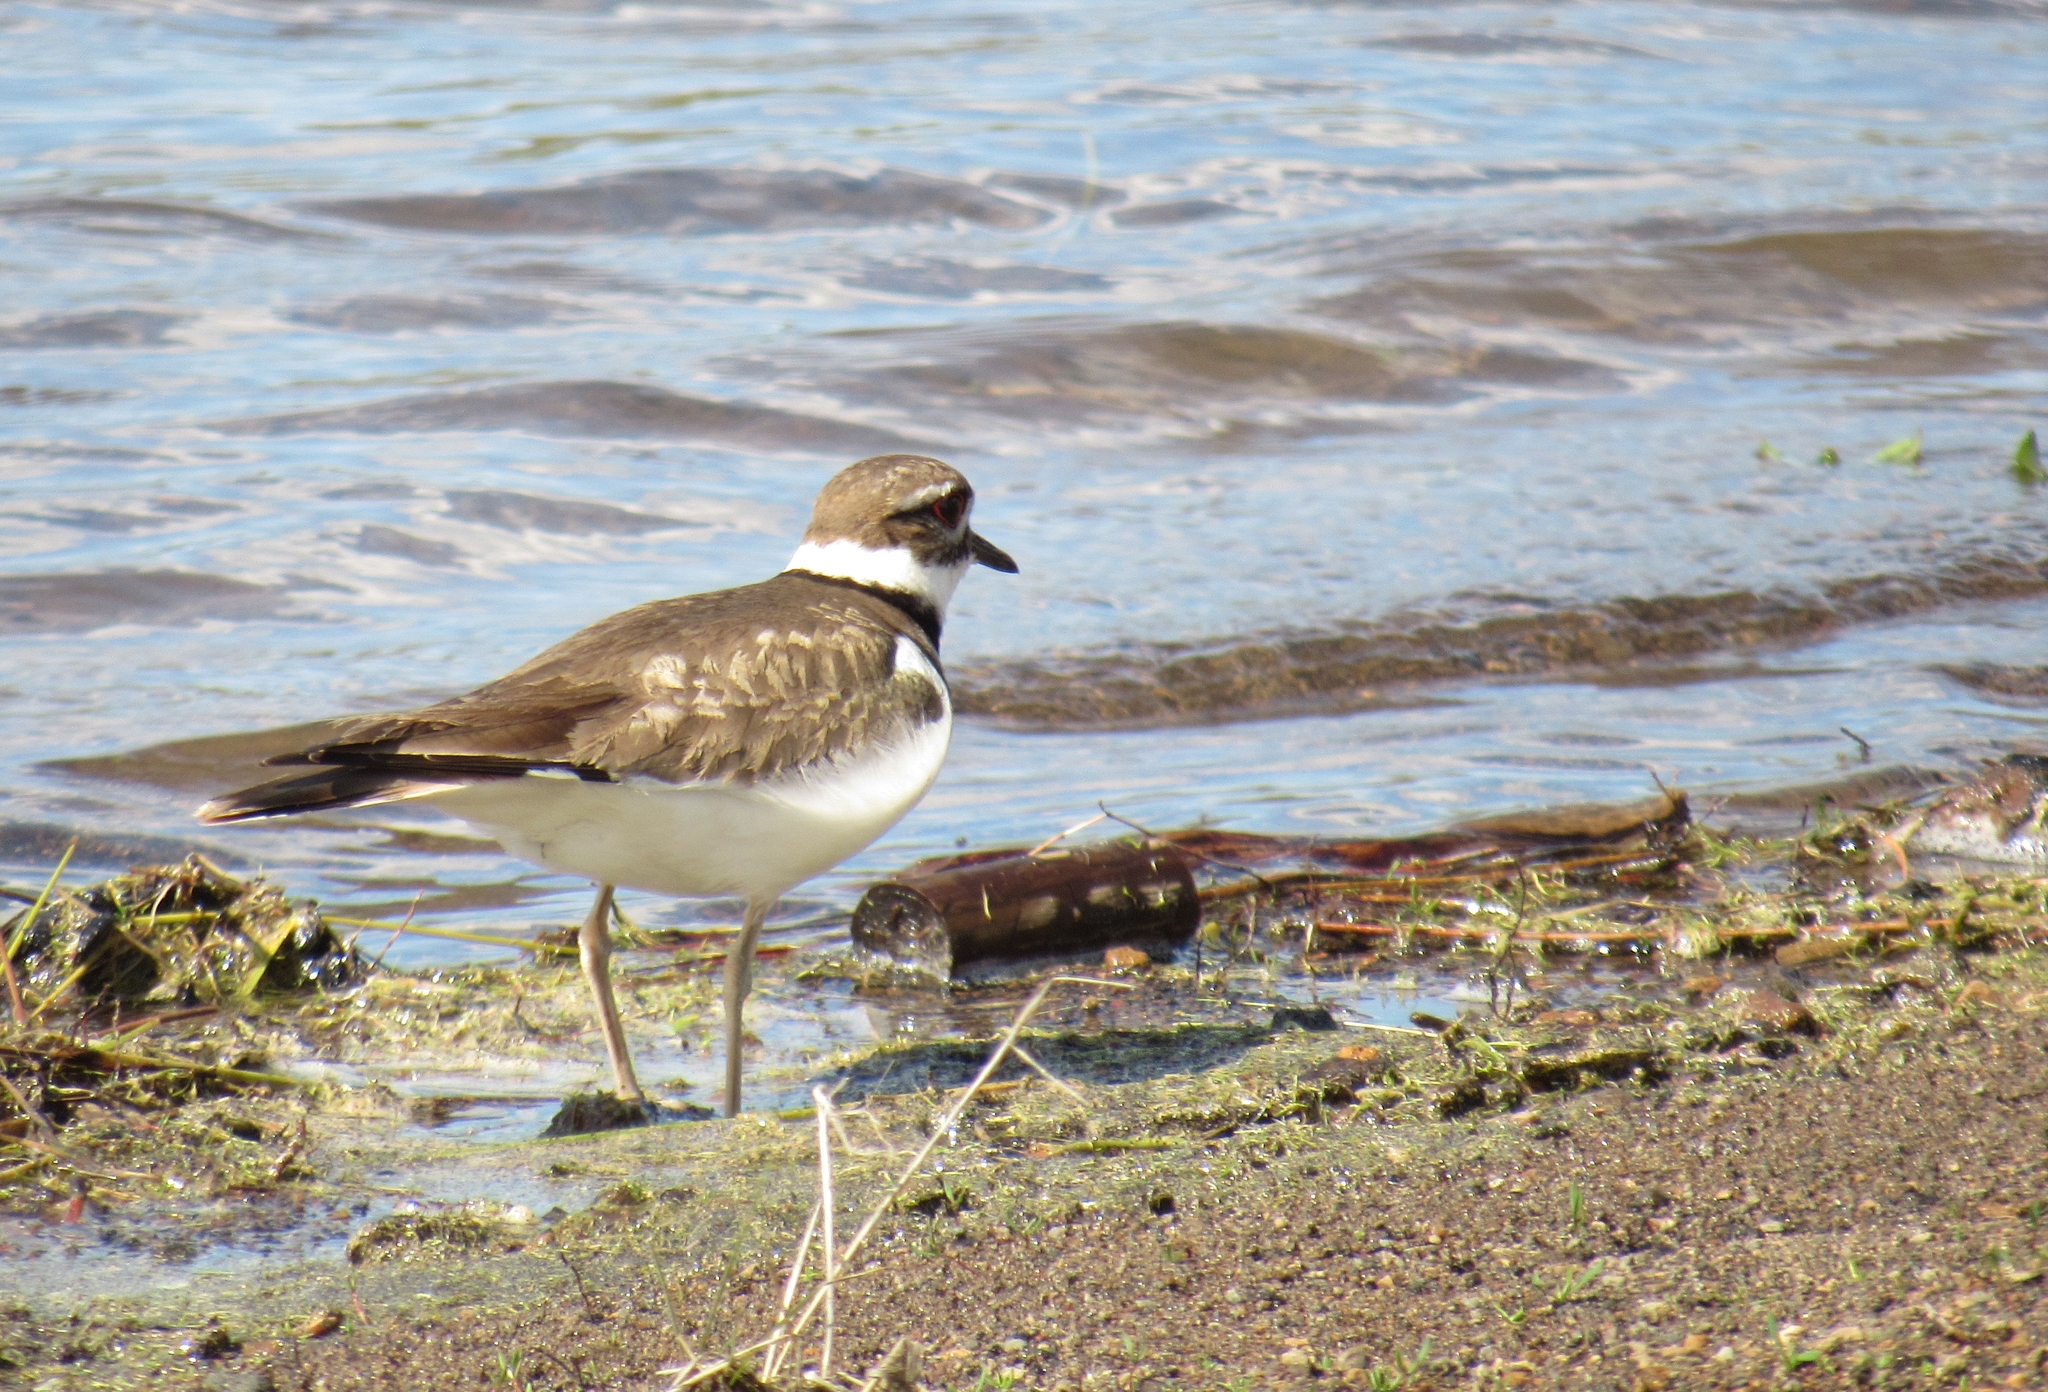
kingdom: Animalia
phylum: Chordata
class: Aves
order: Charadriiformes
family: Charadriidae
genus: Charadrius
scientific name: Charadrius vociferus
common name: Killdeer
